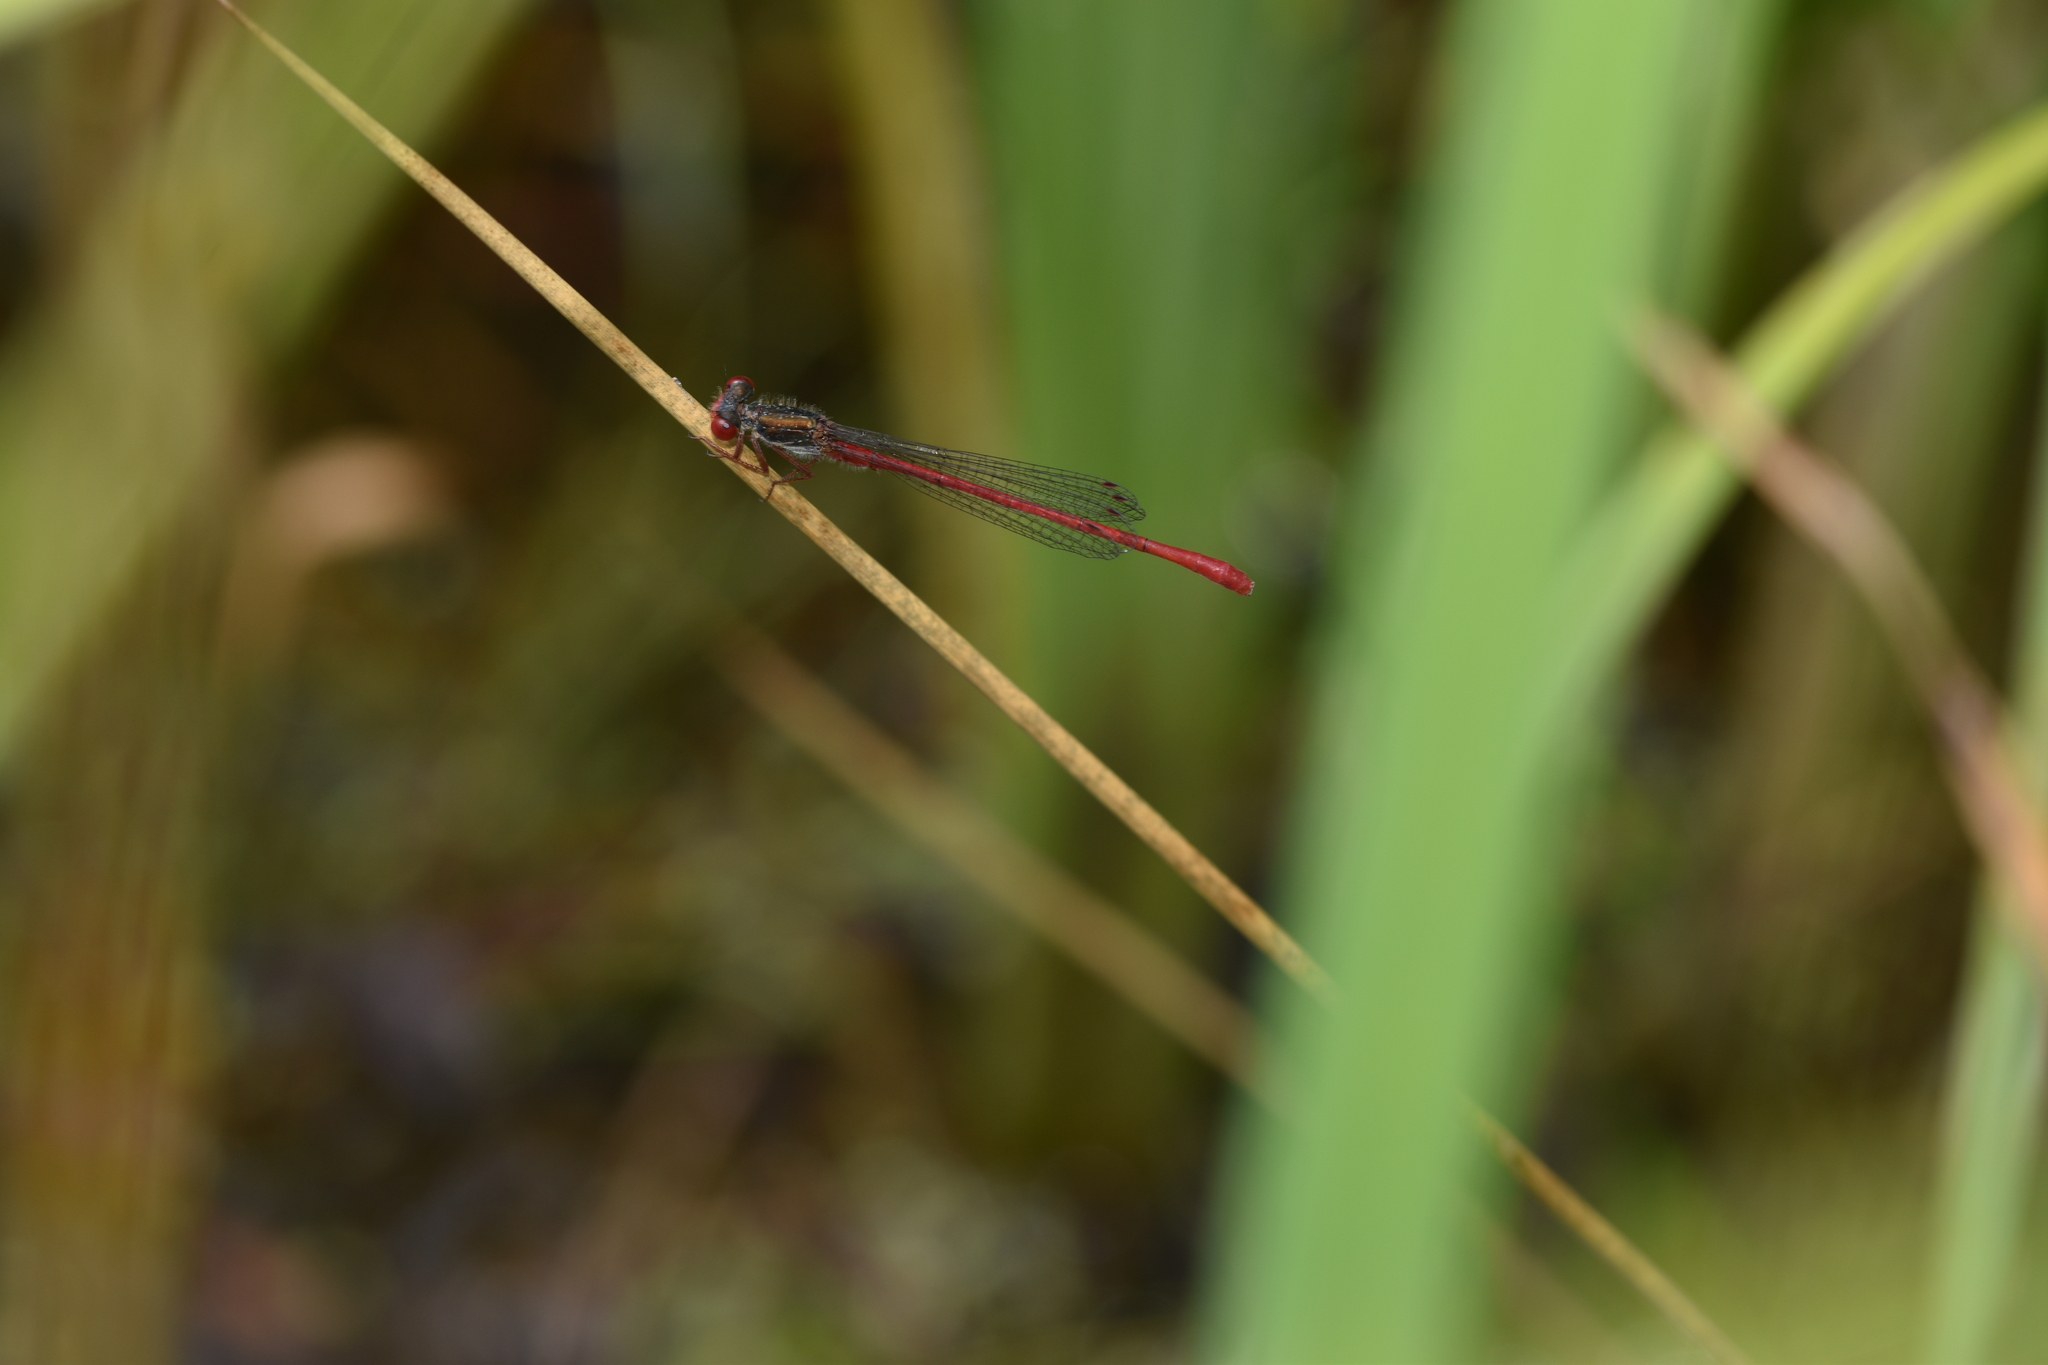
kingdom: Animalia
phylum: Arthropoda
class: Insecta
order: Odonata
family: Coenagrionidae
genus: Ceriagrion
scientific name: Ceriagrion tenellum
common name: Small red damselfly
